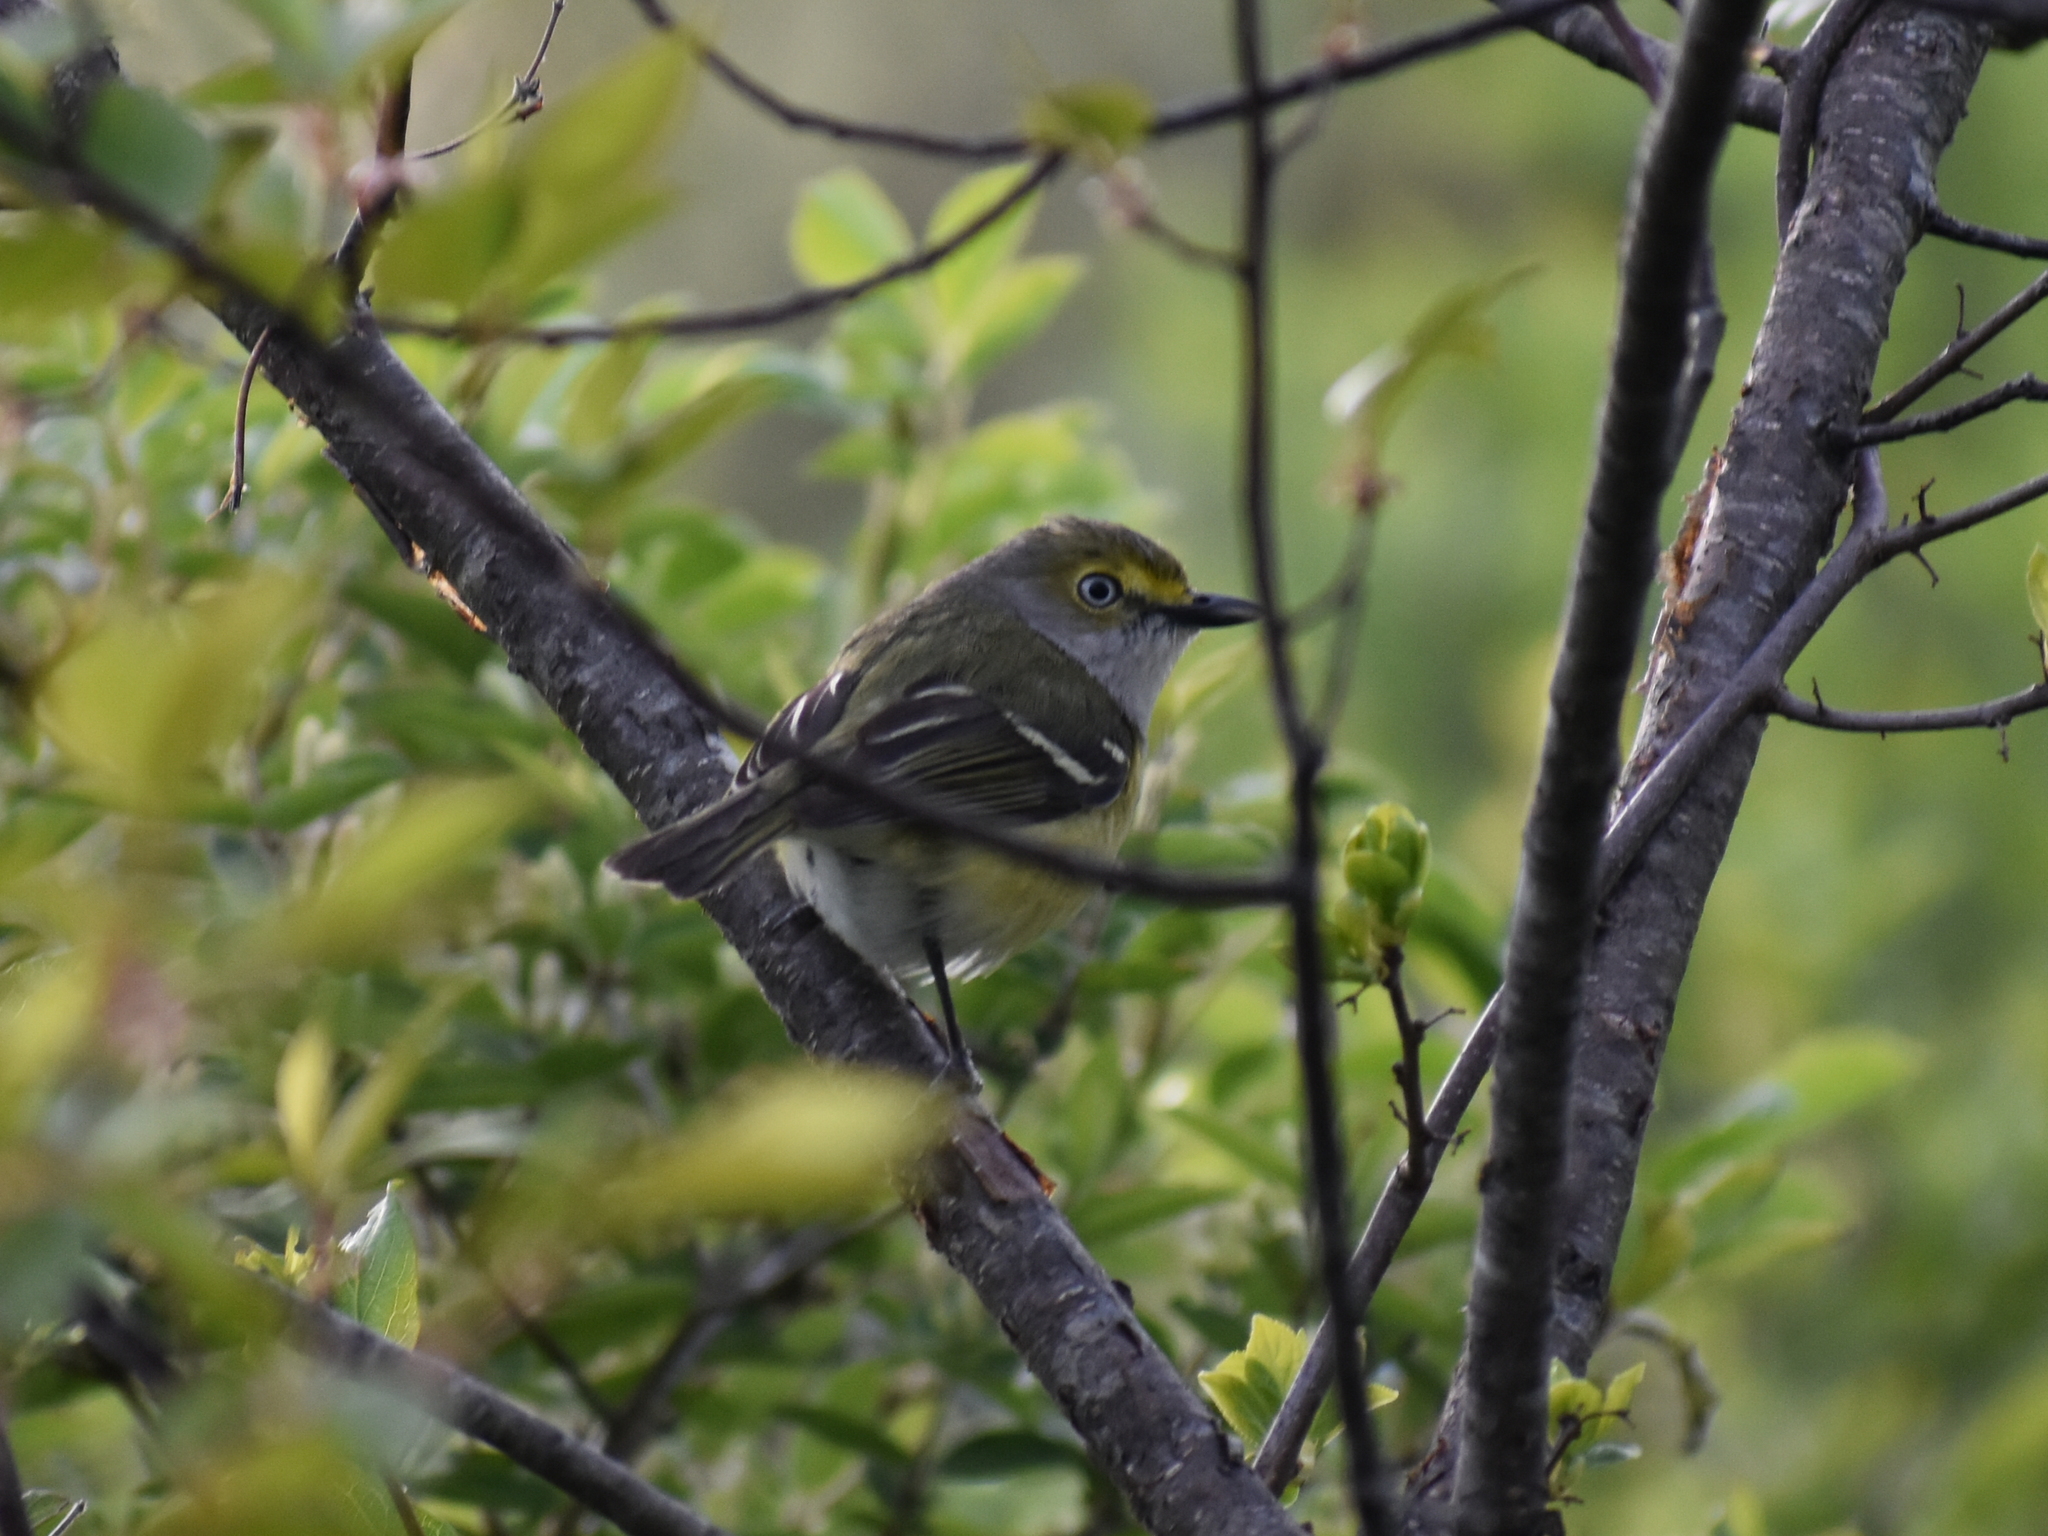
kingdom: Animalia
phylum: Chordata
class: Aves
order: Passeriformes
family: Vireonidae
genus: Vireo
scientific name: Vireo griseus
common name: White-eyed vireo
